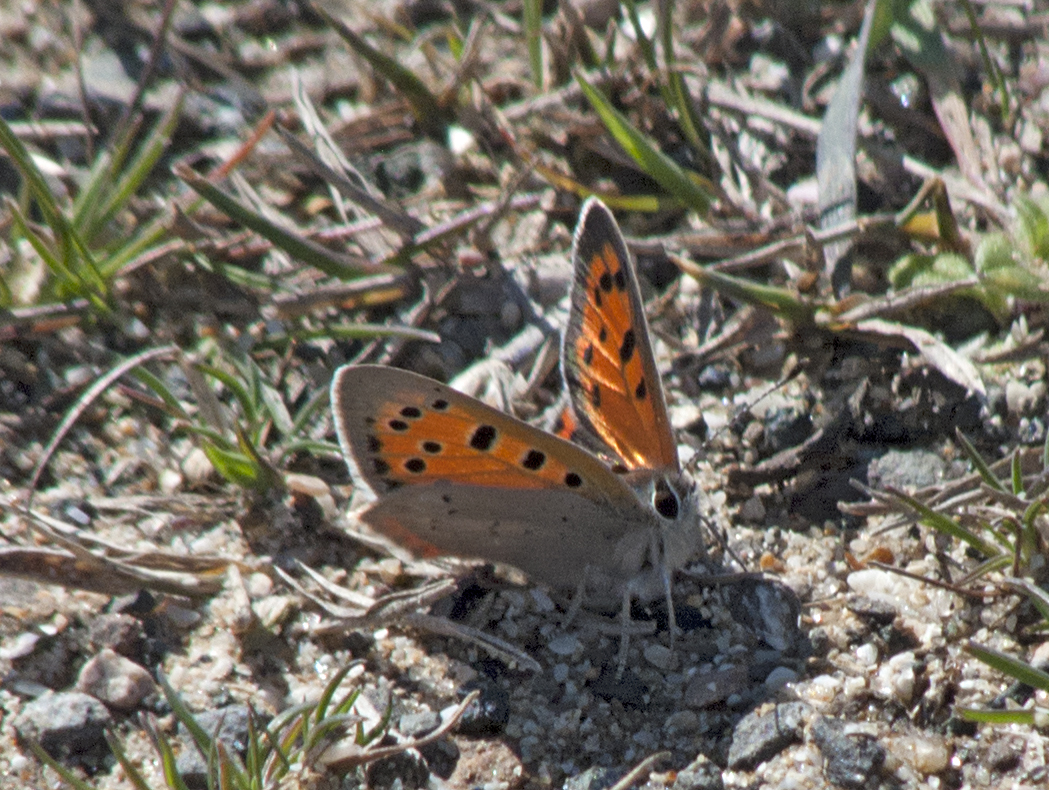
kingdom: Animalia
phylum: Arthropoda
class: Insecta
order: Lepidoptera
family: Lycaenidae
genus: Lycaena
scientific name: Lycaena phlaeas
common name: Small copper
